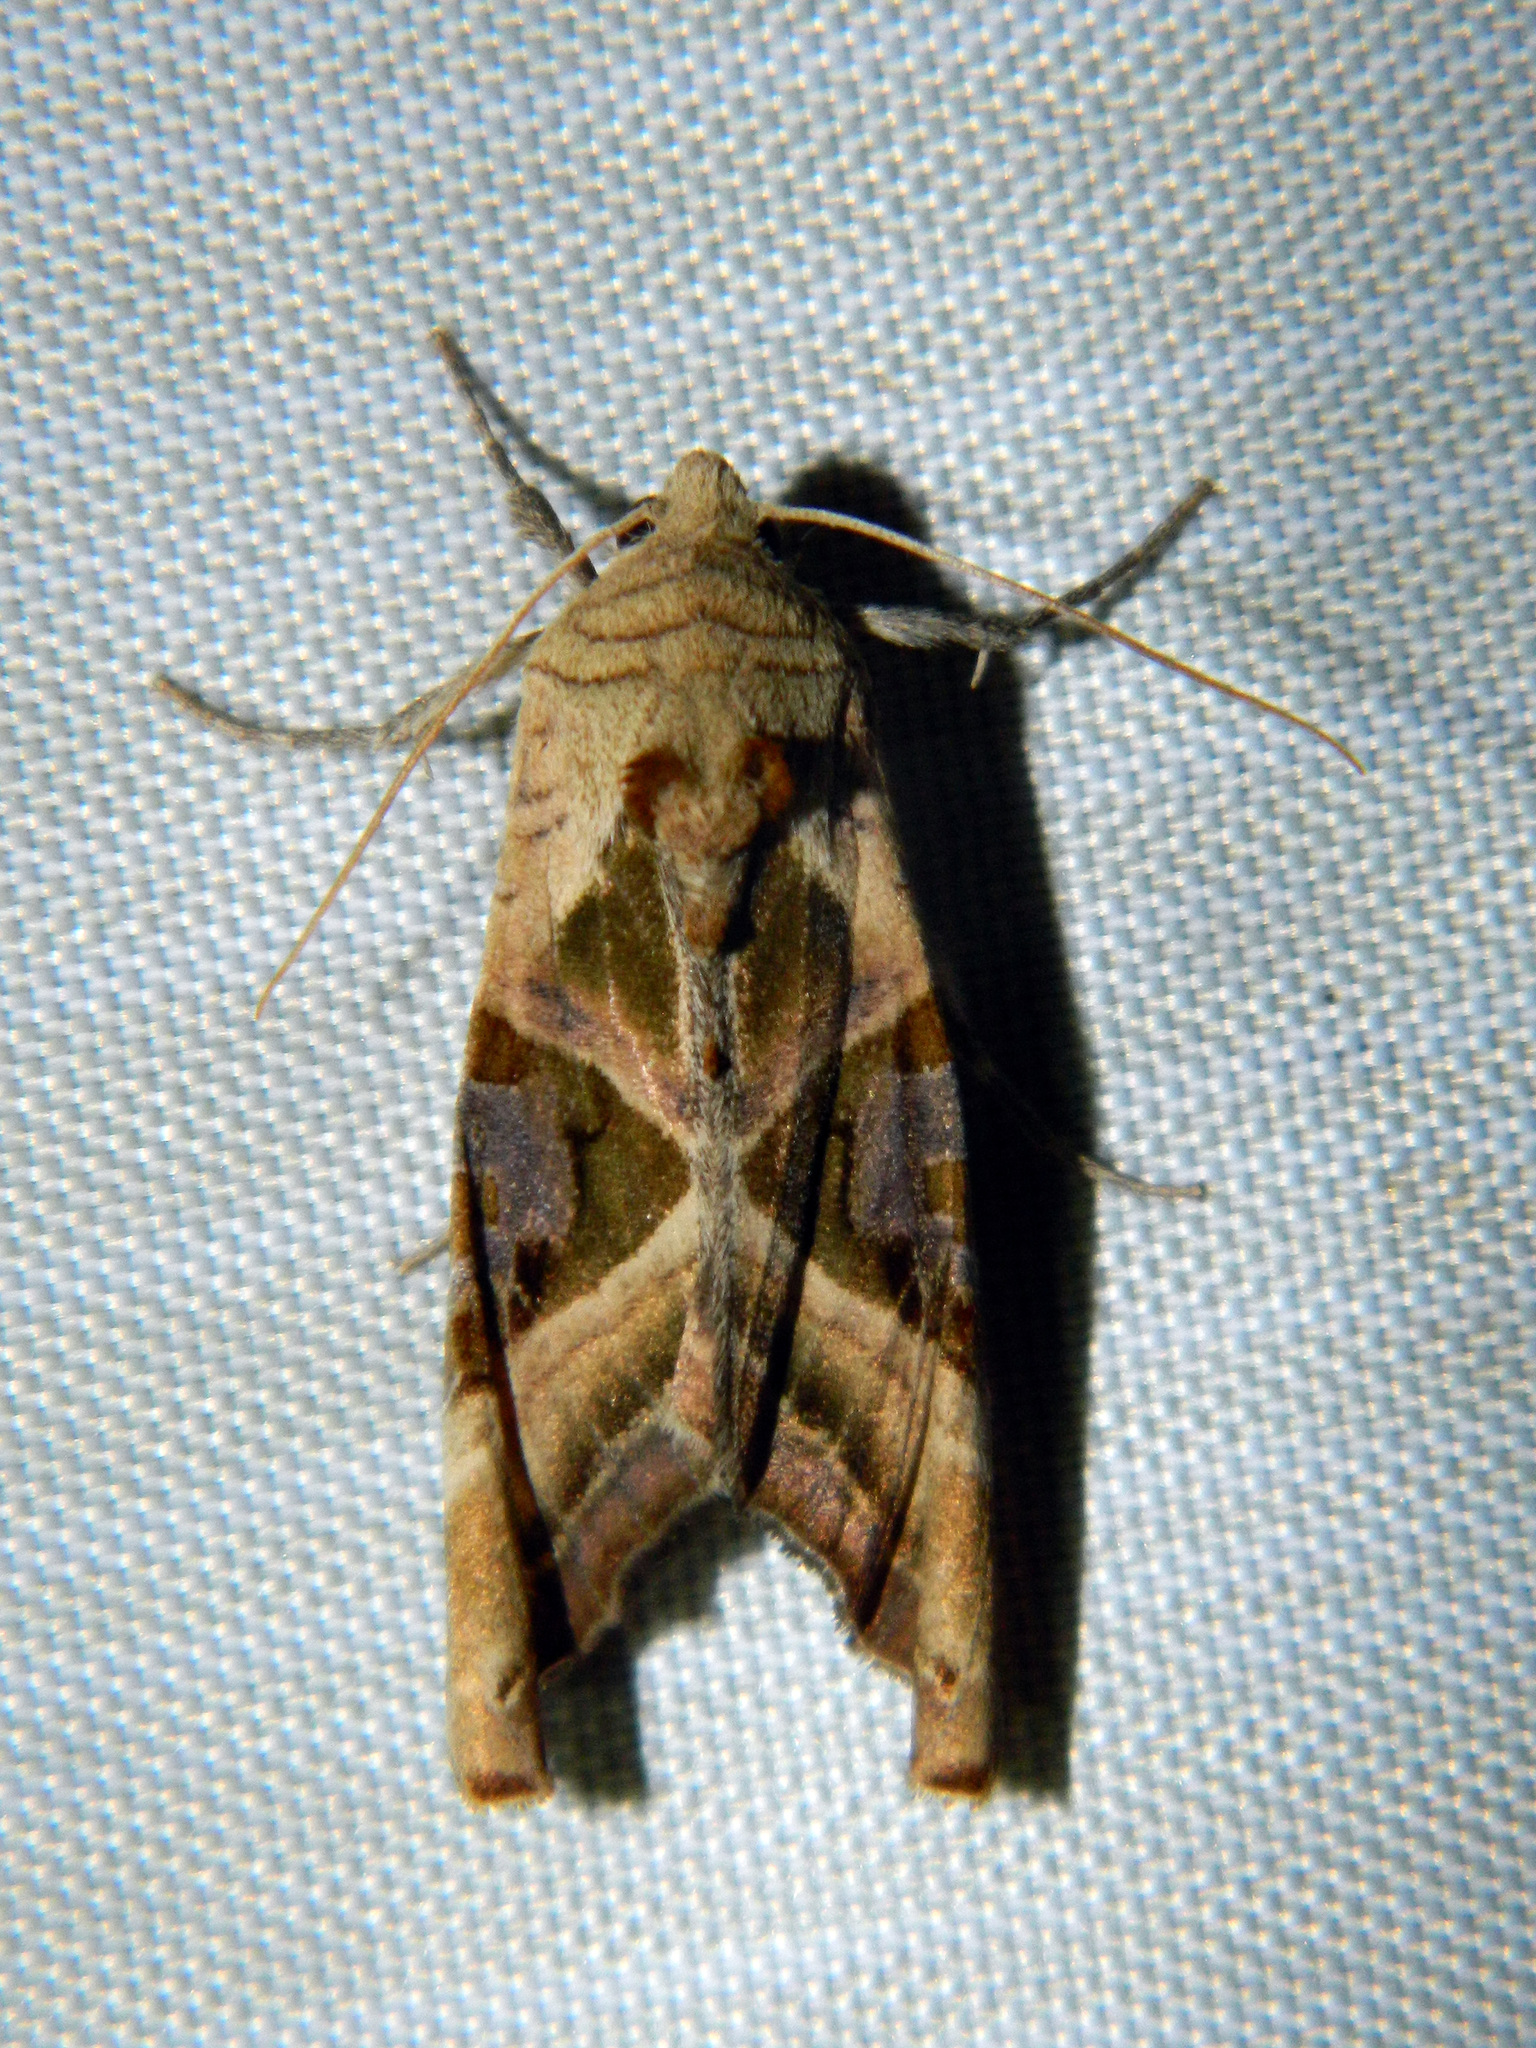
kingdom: Animalia
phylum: Arthropoda
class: Insecta
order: Lepidoptera
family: Noctuidae
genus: Phlogophora
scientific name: Phlogophora iris
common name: Olive angle shades
